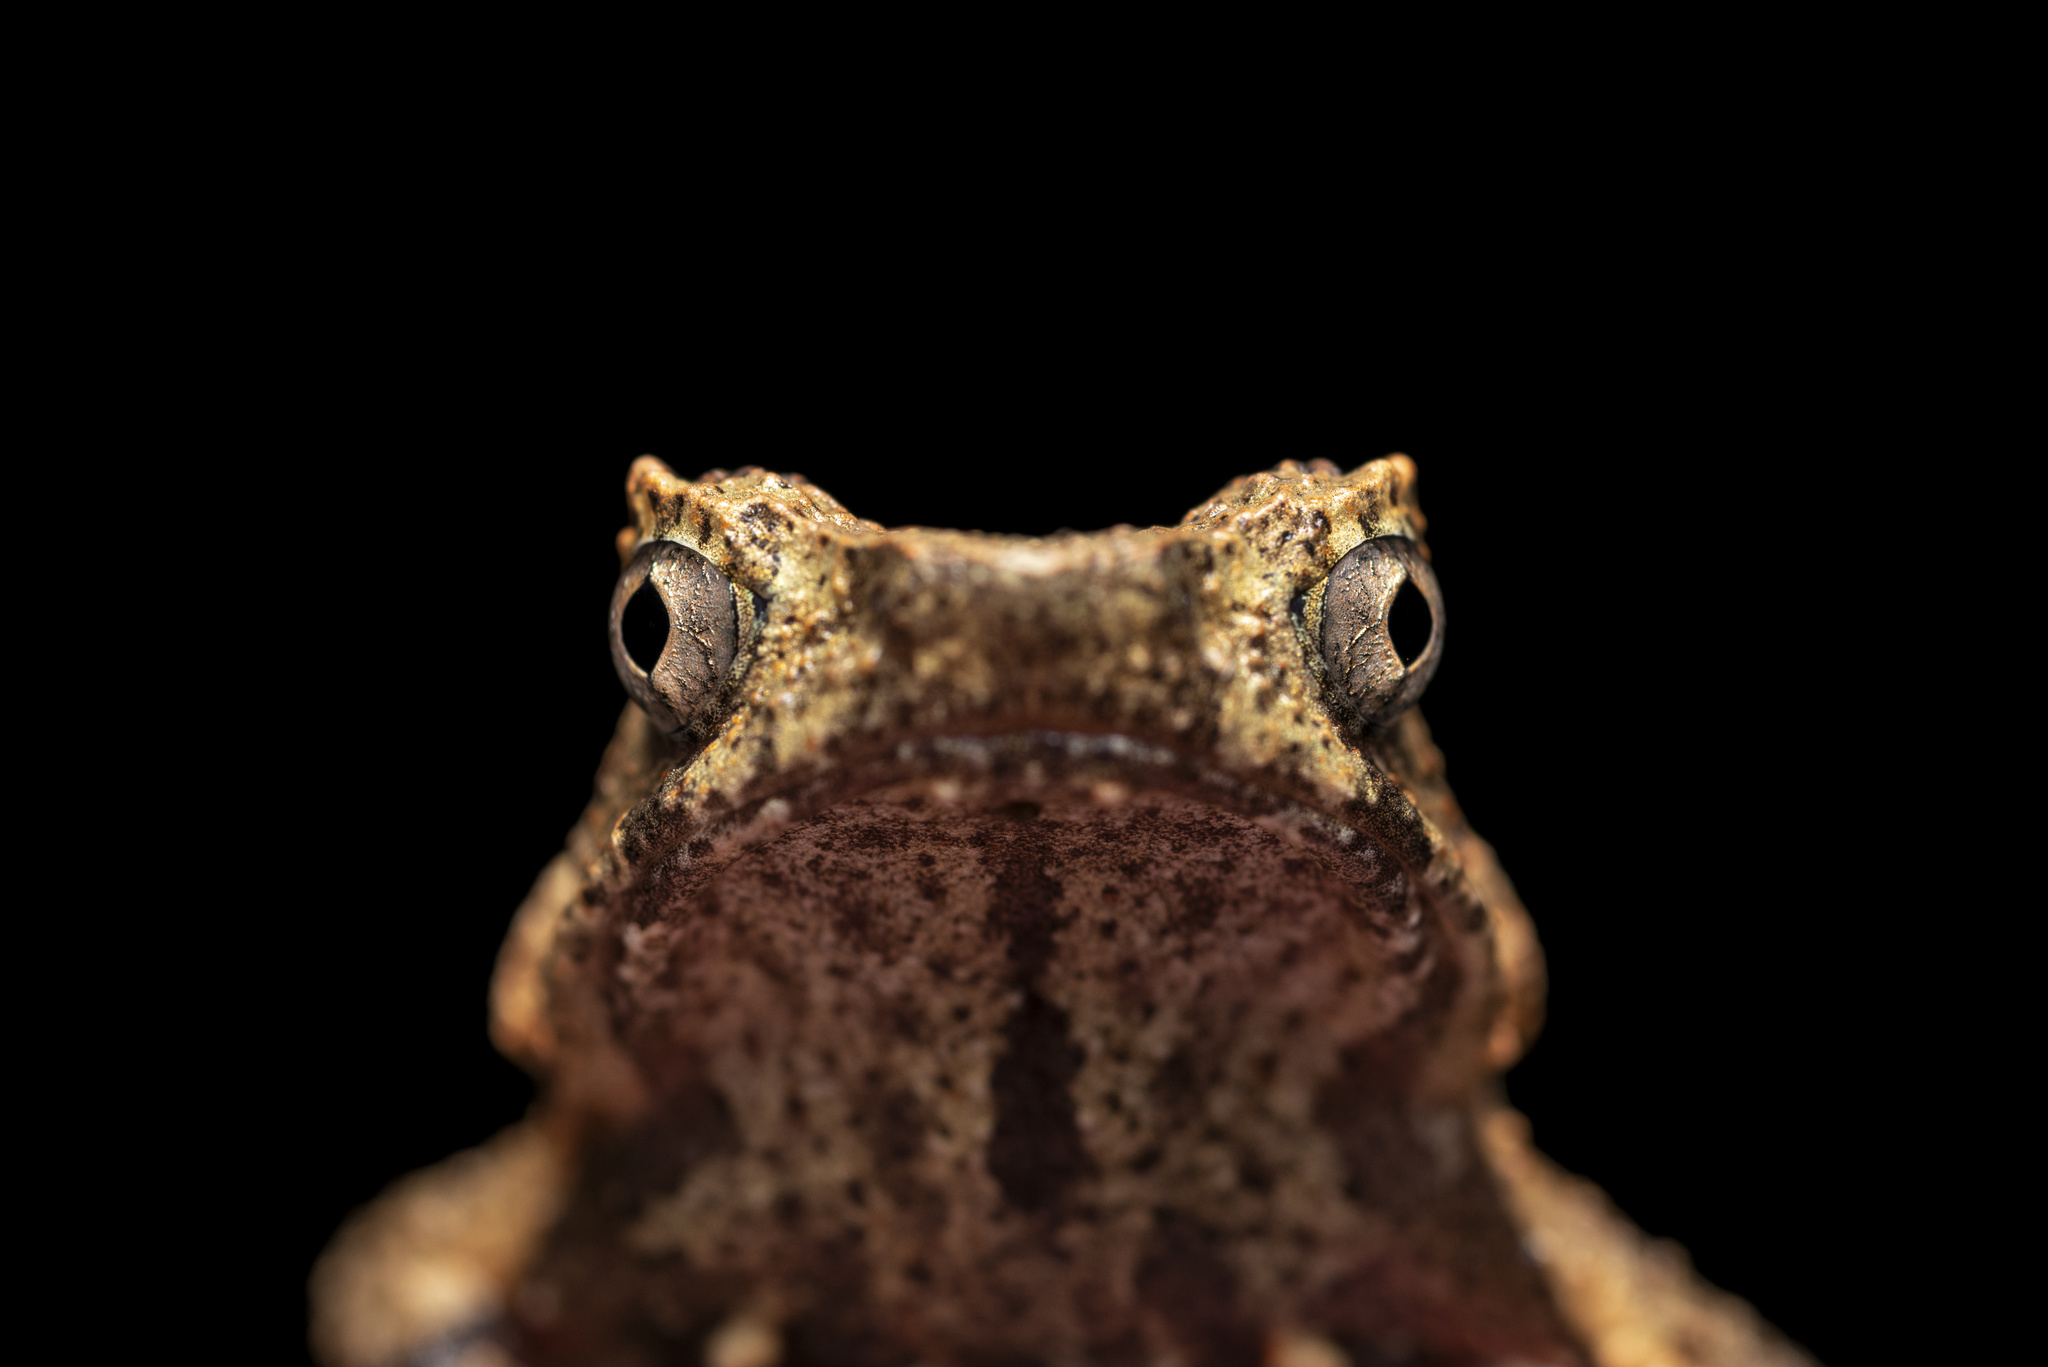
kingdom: Animalia
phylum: Chordata
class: Amphibia
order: Anura
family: Megophryidae
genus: Megophrys
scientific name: Megophrys brachykolos
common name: Short-legged horned toad
